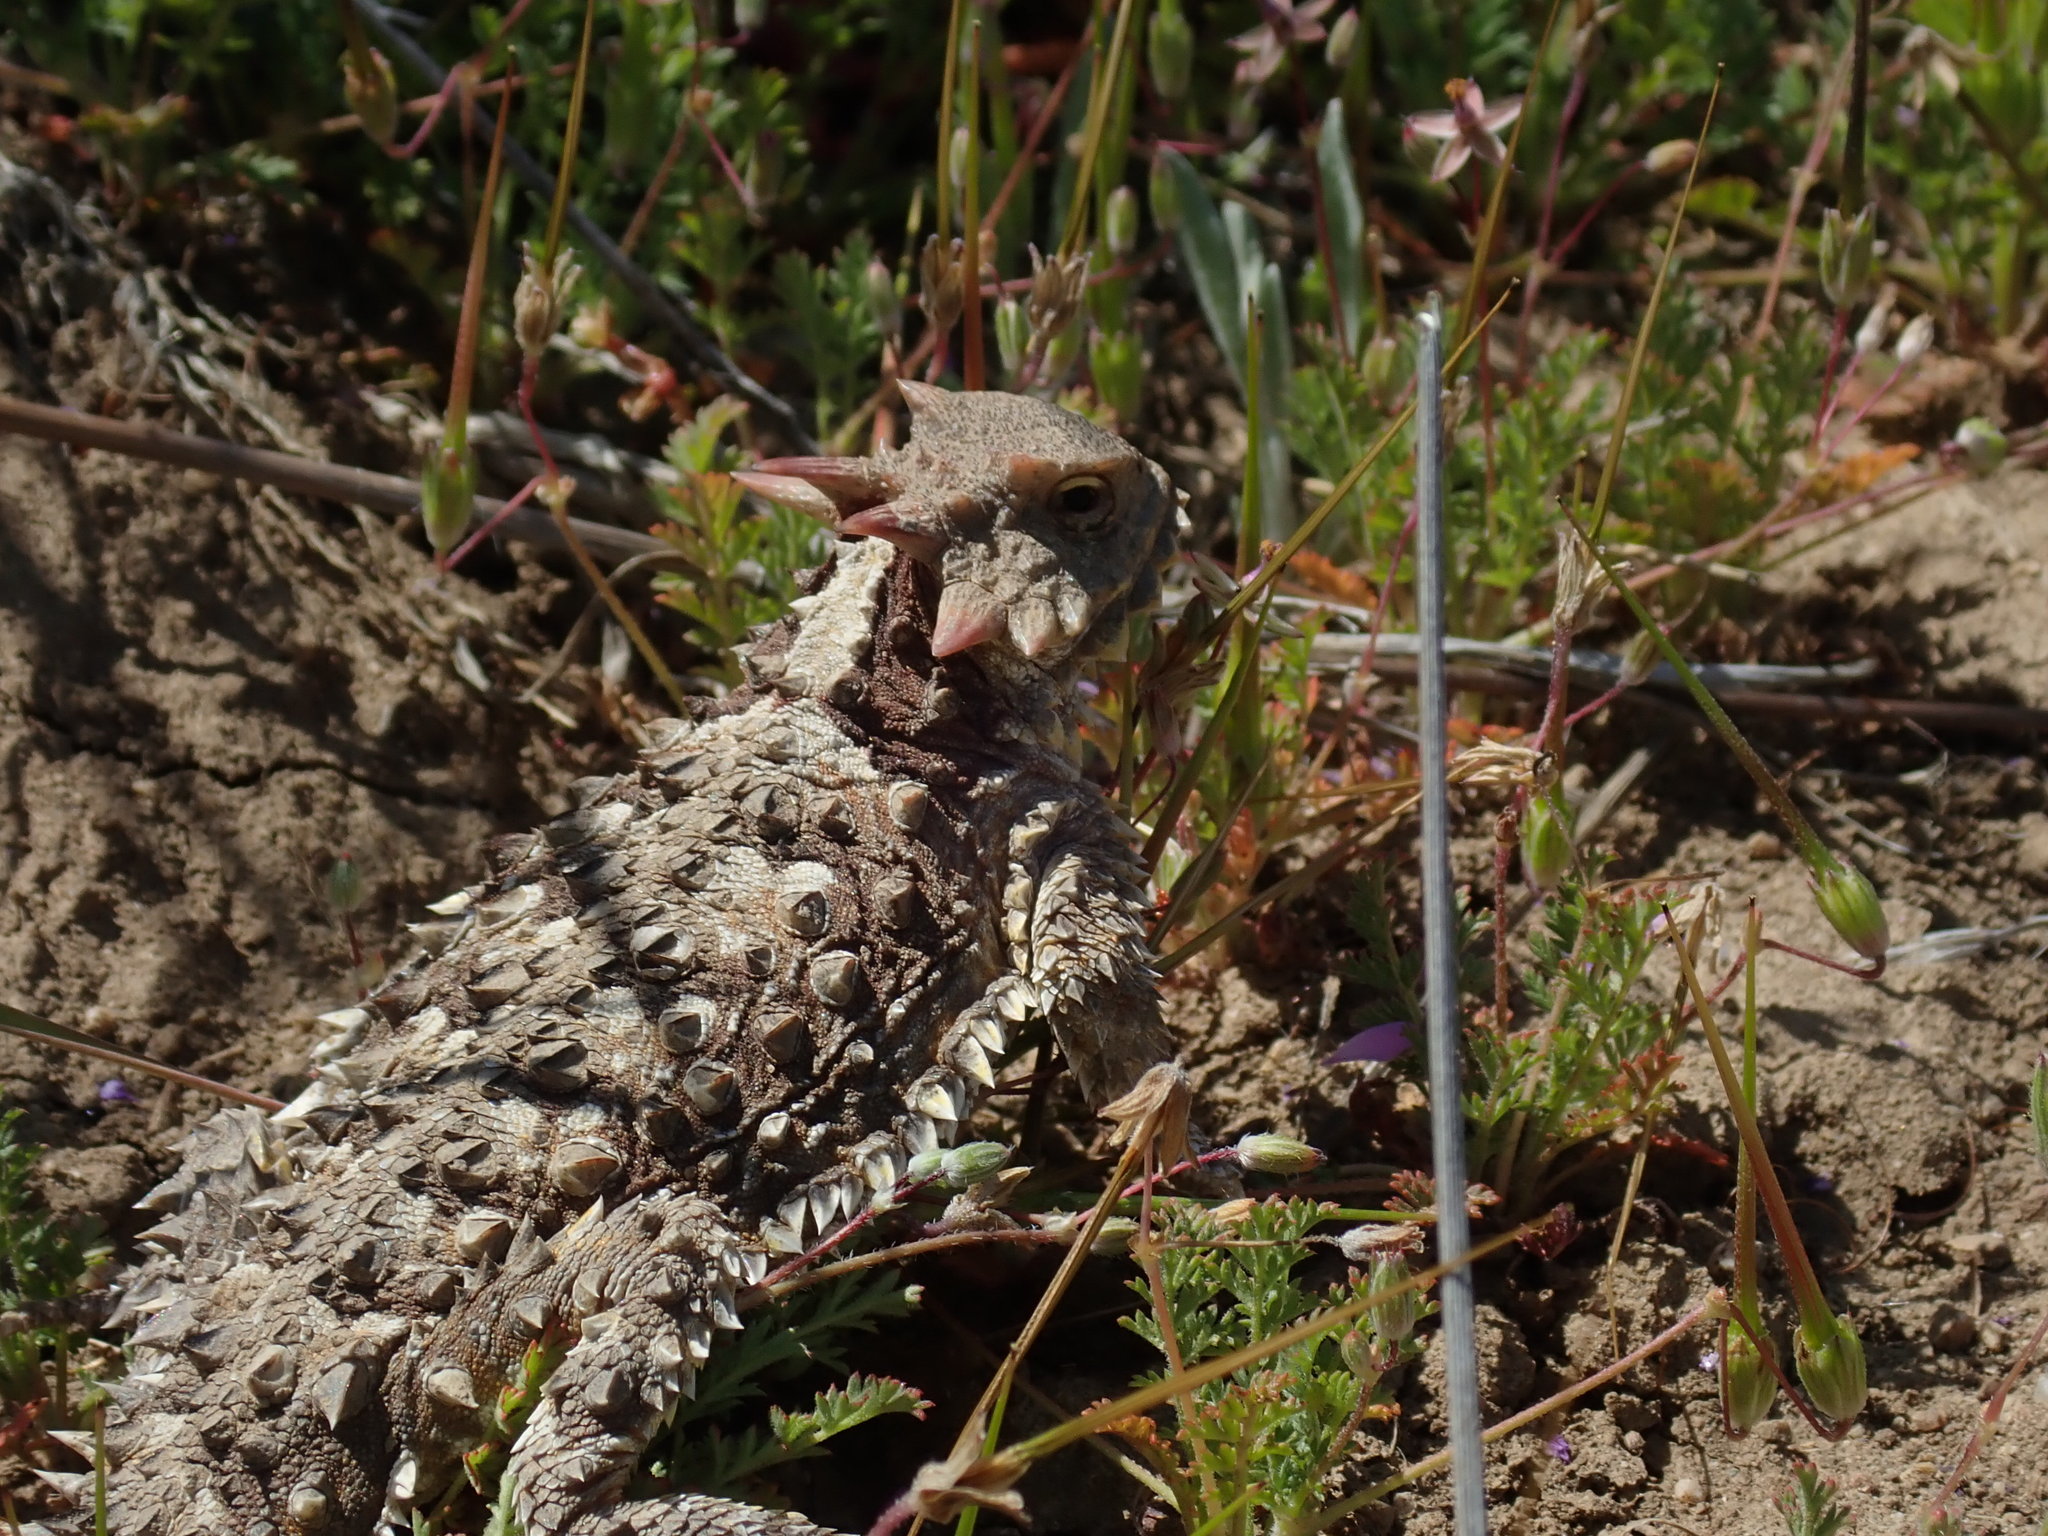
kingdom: Animalia
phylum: Chordata
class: Squamata
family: Phrynosomatidae
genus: Phrynosoma
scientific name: Phrynosoma blainvillii
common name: San diego horned lizard
